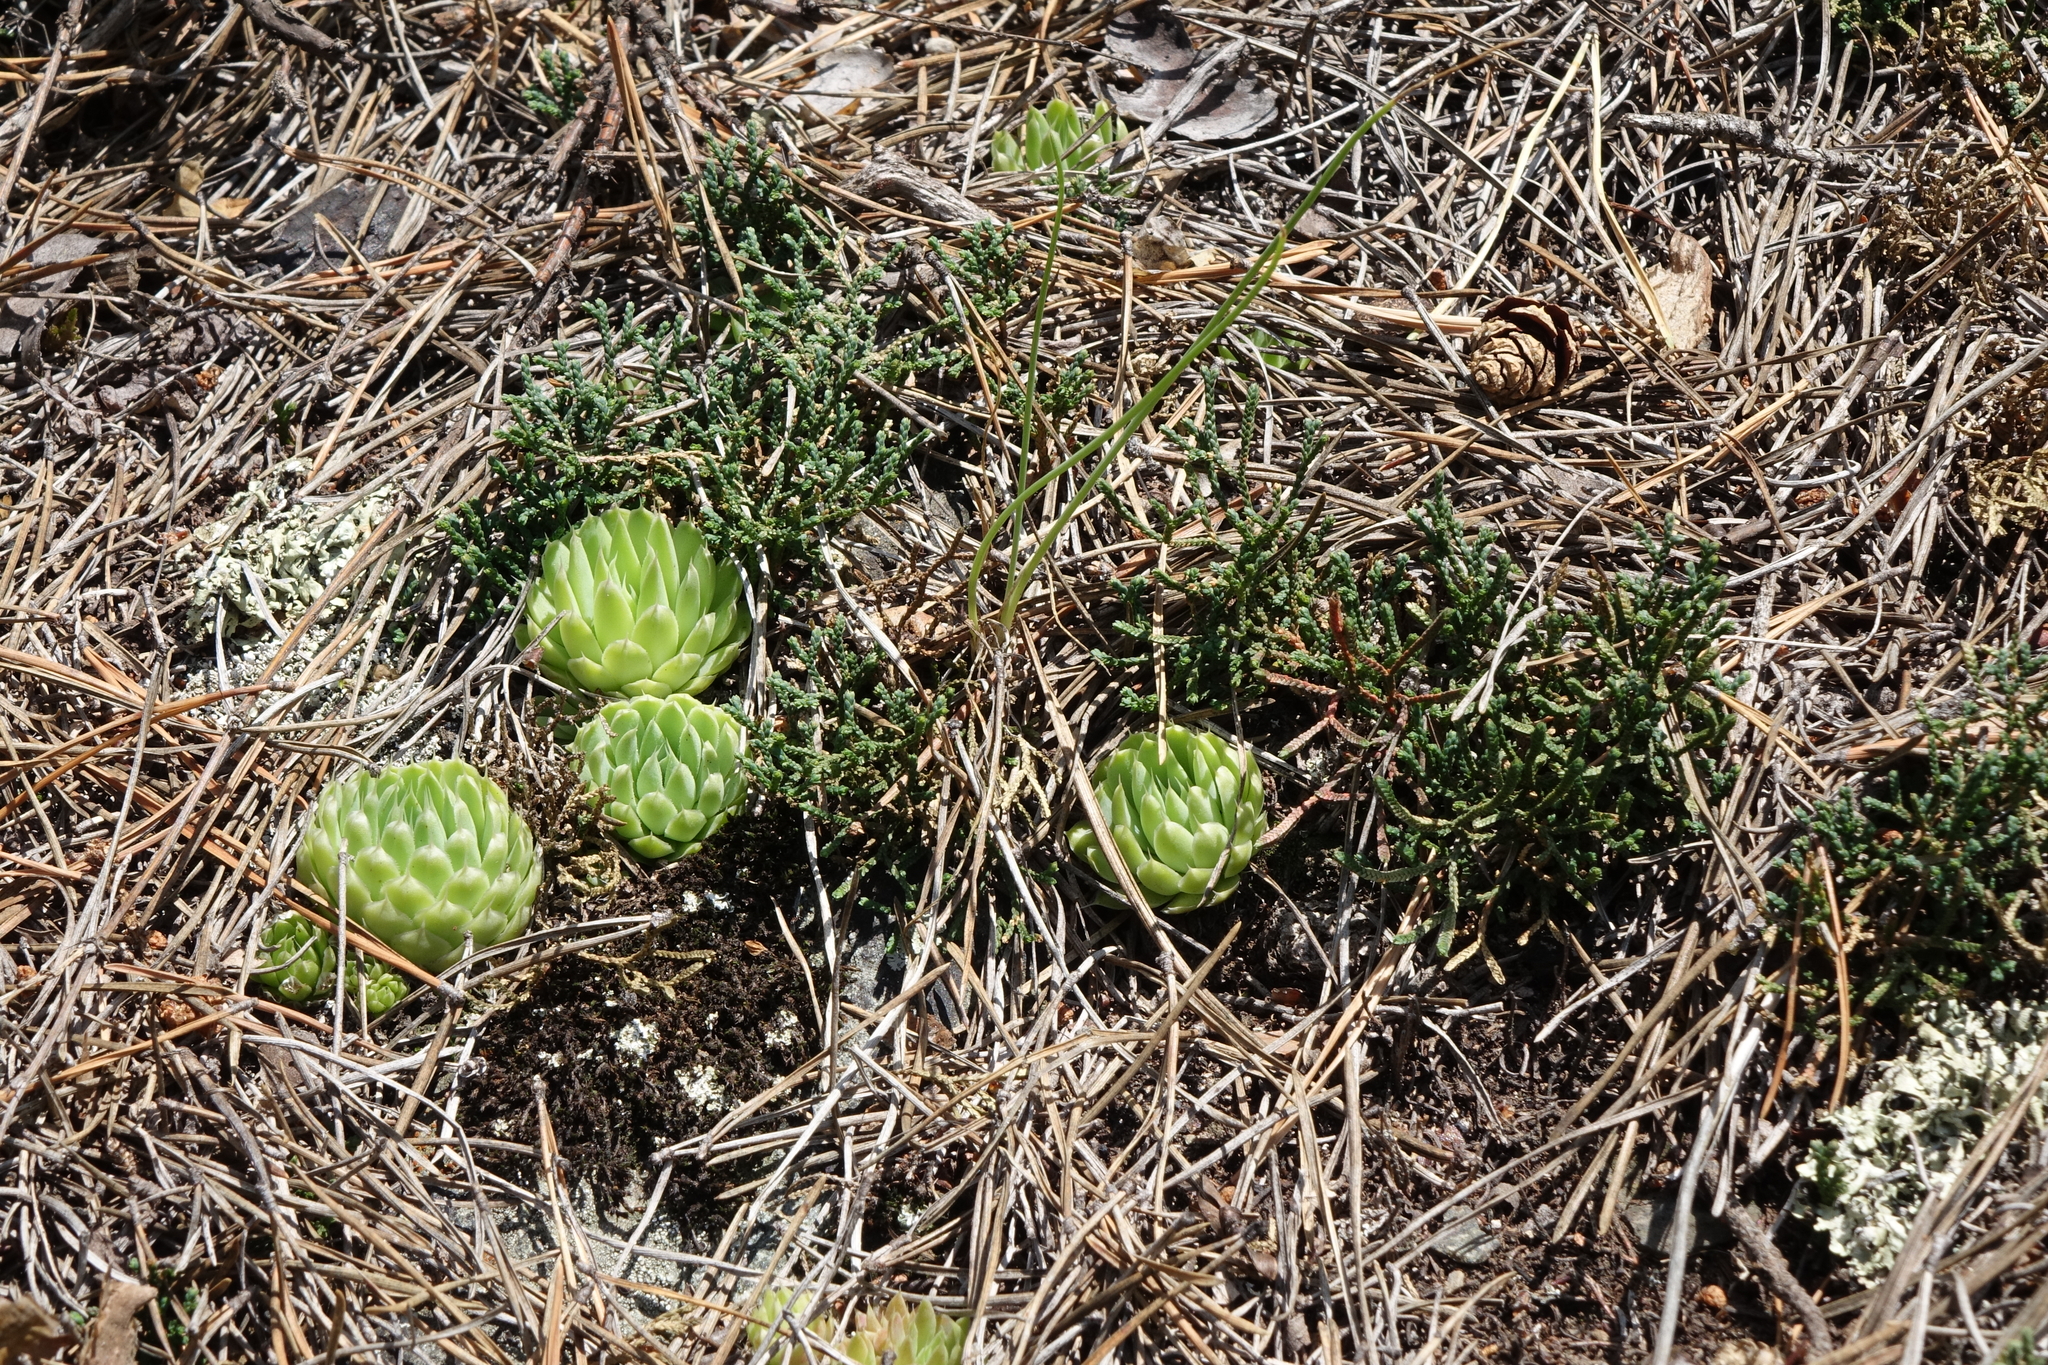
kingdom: Plantae
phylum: Tracheophyta
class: Magnoliopsida
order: Saxifragales
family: Crassulaceae
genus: Orostachys
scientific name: Orostachys spinosa
